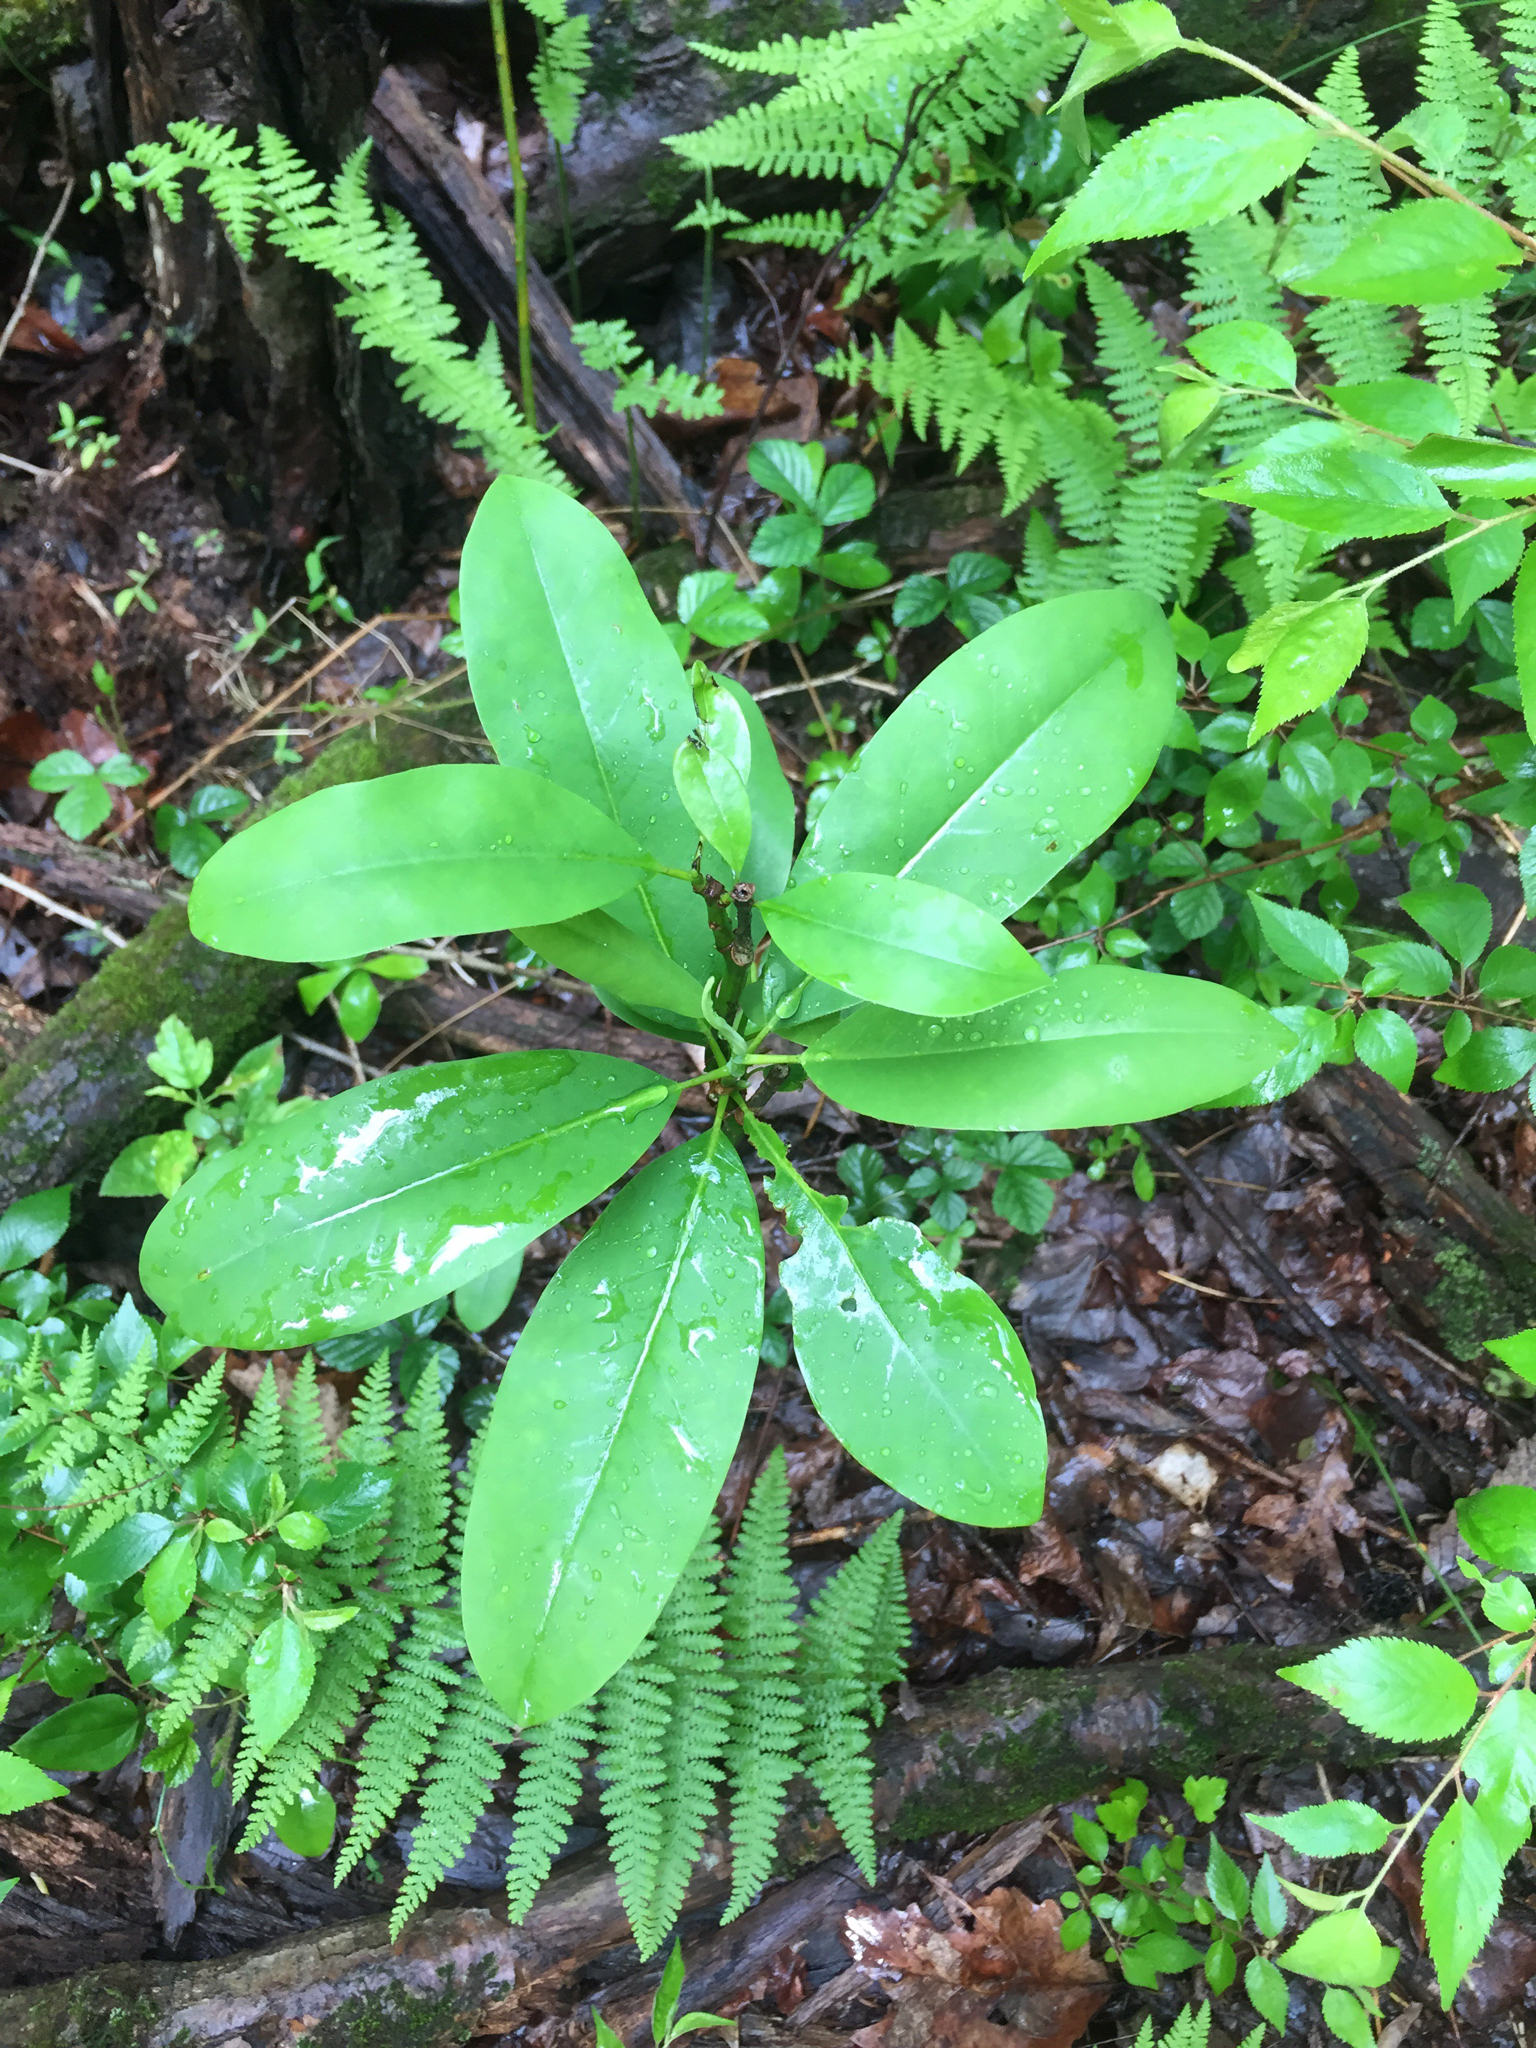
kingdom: Plantae
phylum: Tracheophyta
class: Magnoliopsida
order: Magnoliales
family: Magnoliaceae
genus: Magnolia
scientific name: Magnolia virginiana
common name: Swamp bay
